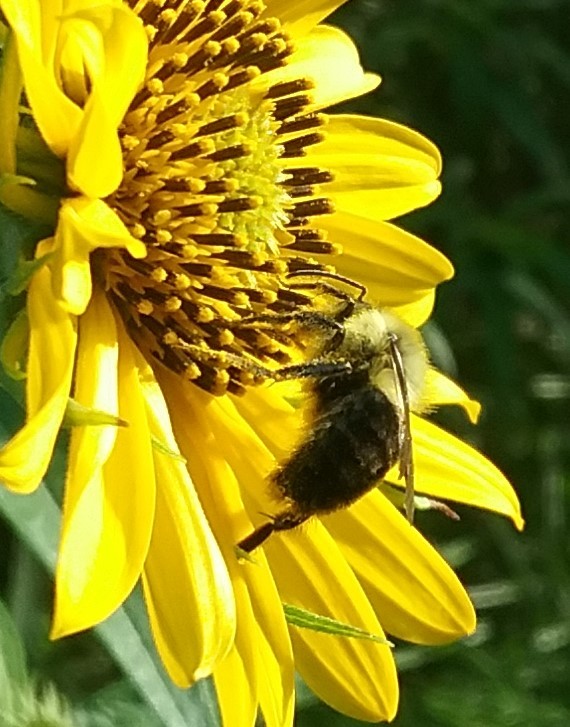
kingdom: Animalia
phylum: Arthropoda
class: Insecta
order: Hymenoptera
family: Apidae
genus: Bombus
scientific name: Bombus impatiens
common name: Common eastern bumble bee
